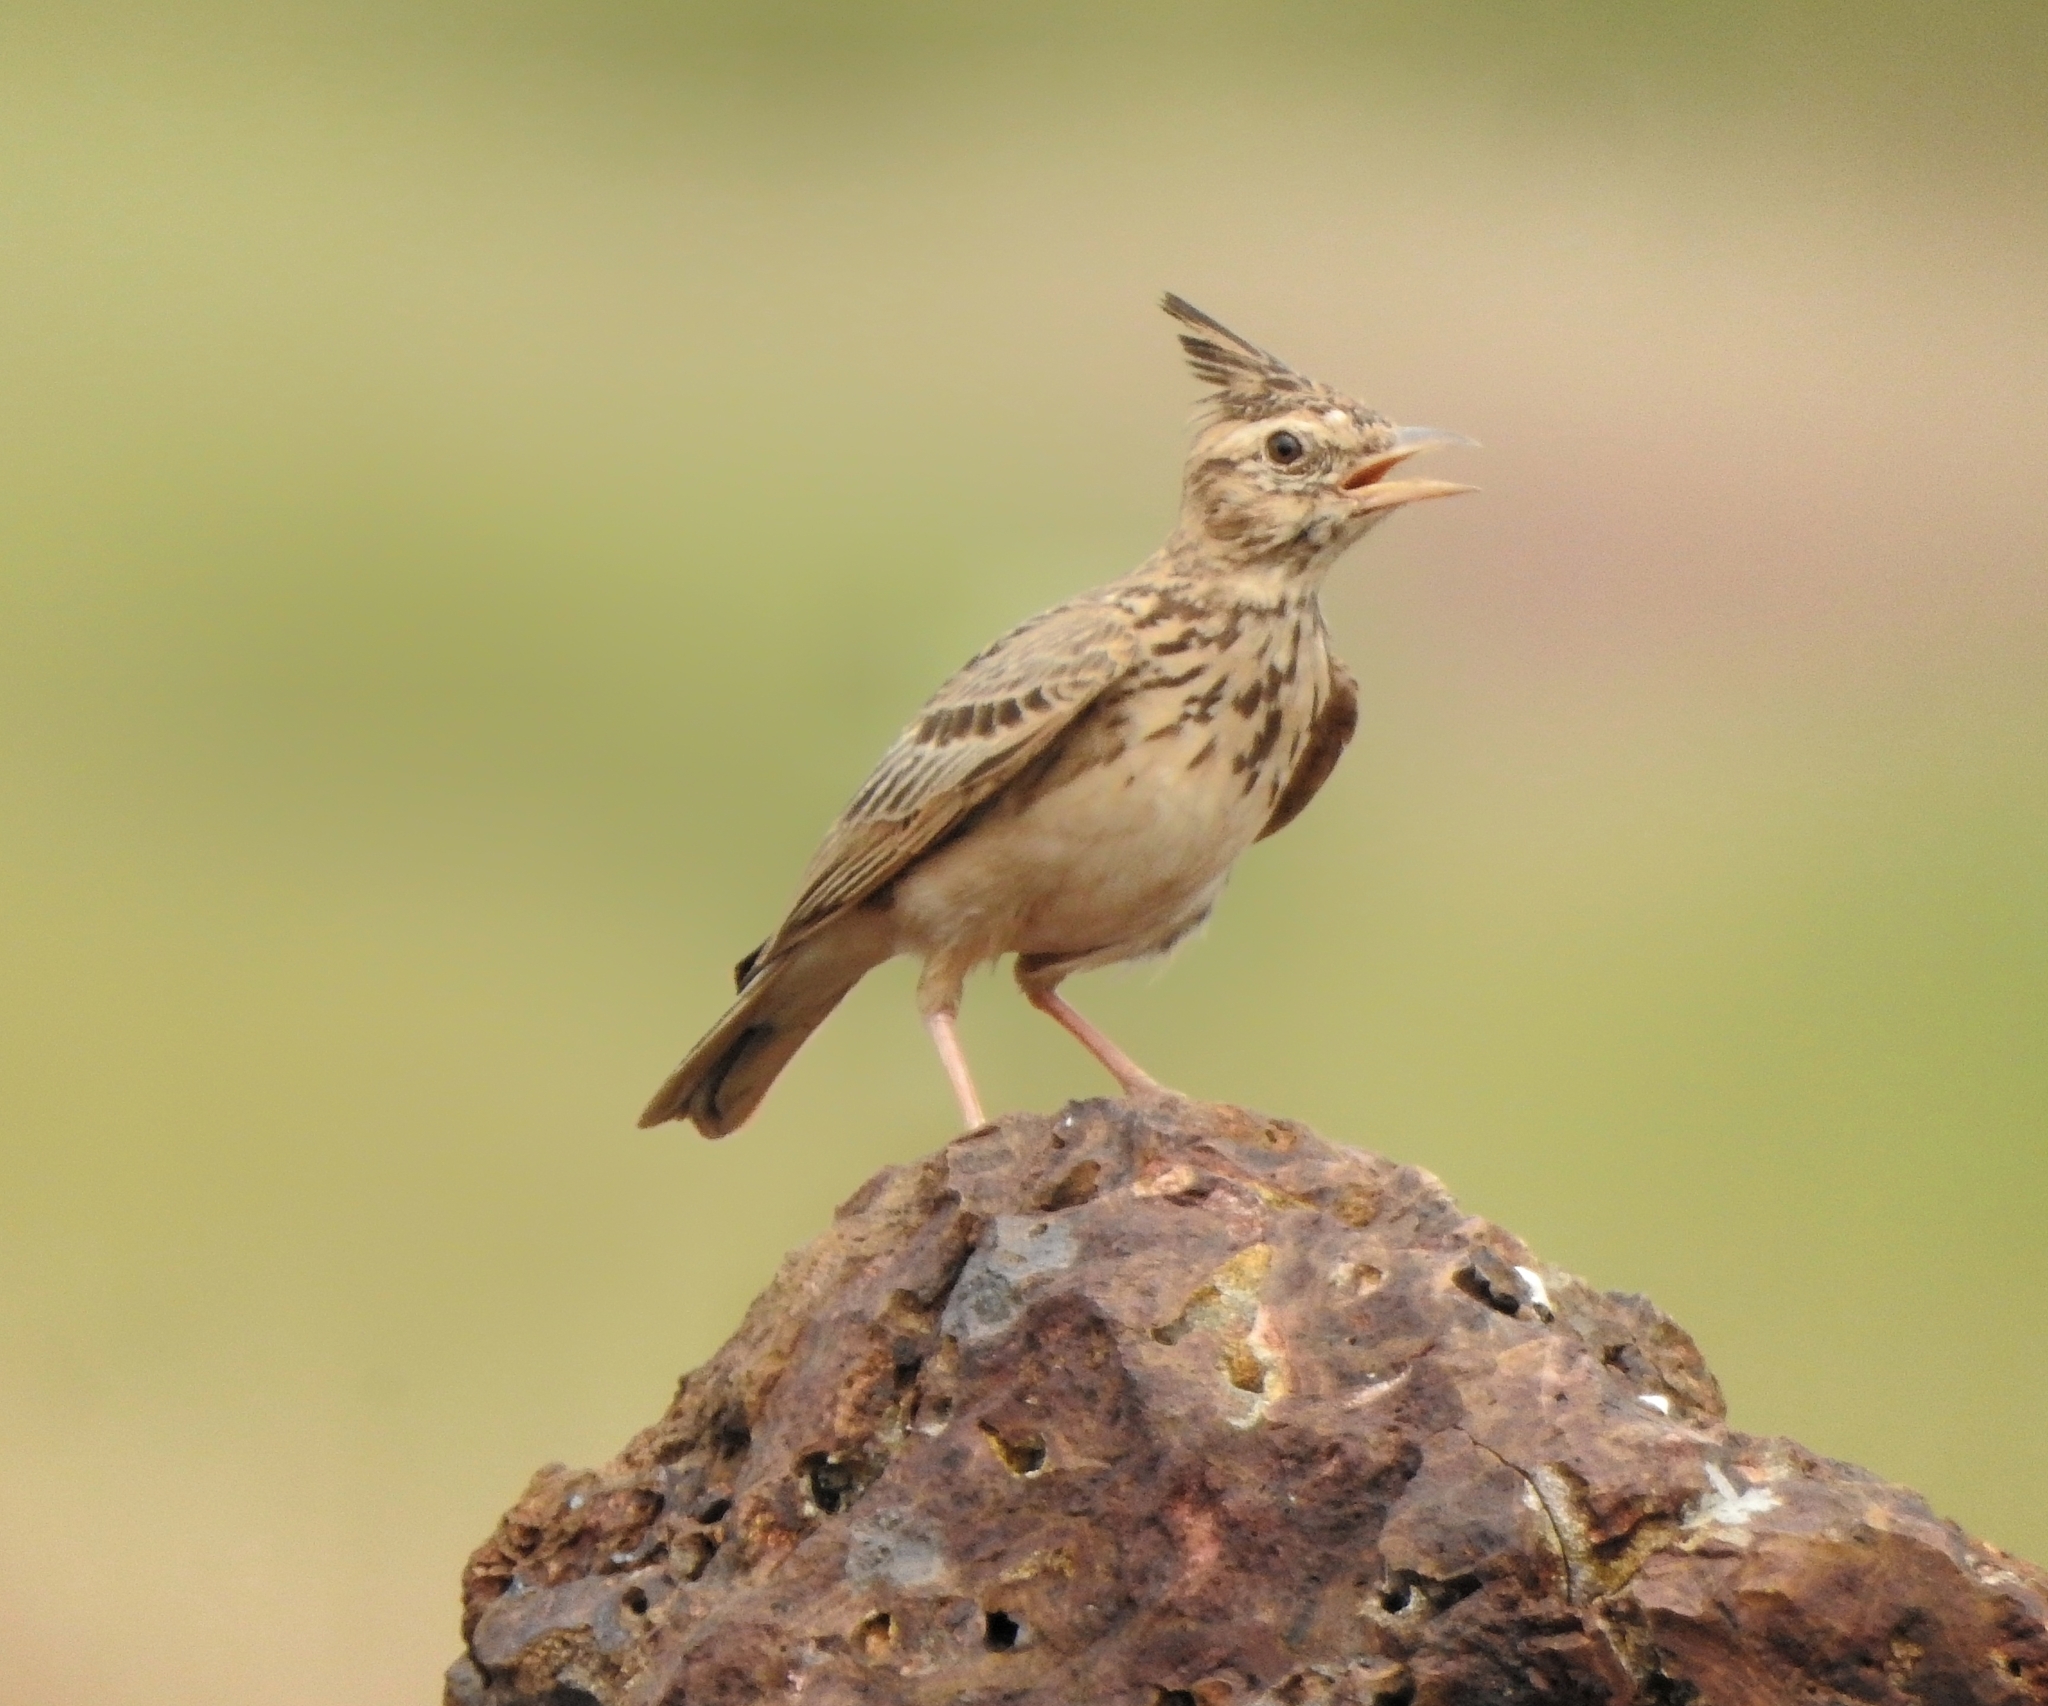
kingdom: Animalia
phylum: Chordata
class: Aves
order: Passeriformes
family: Alaudidae
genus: Galerida
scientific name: Galerida malabarica
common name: Malabar lark
